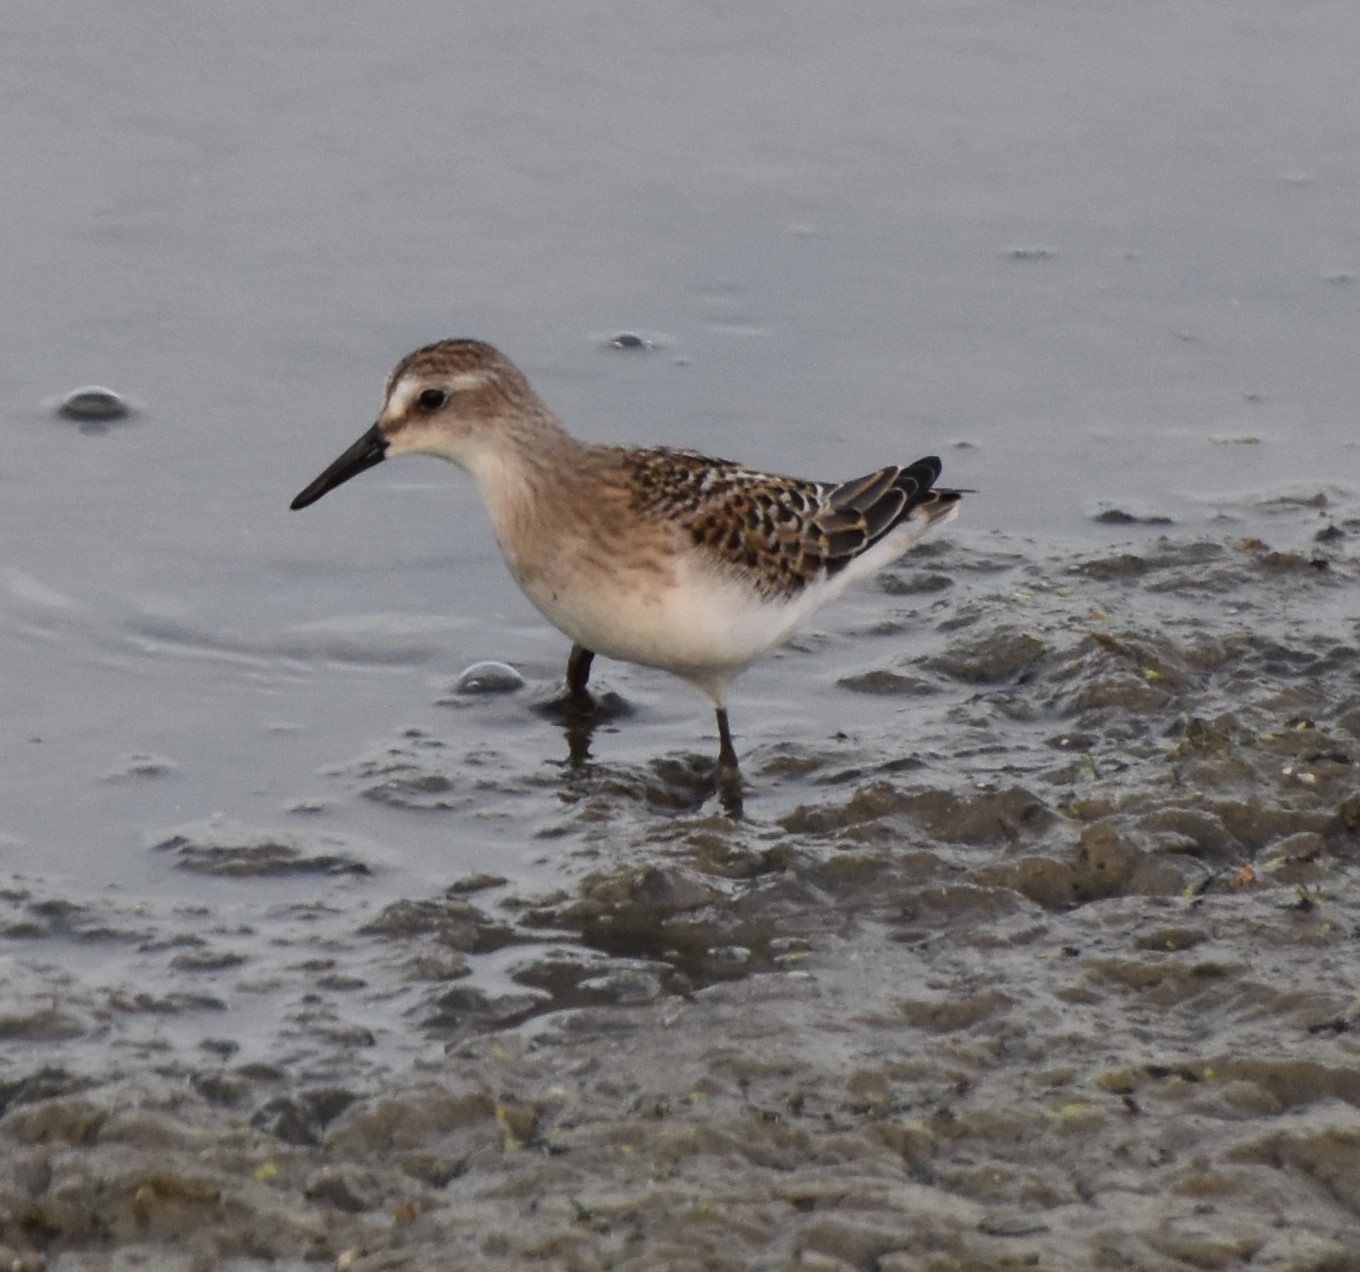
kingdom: Animalia
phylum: Chordata
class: Aves
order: Charadriiformes
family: Scolopacidae
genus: Calidris
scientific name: Calidris pusilla
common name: Semipalmated sandpiper
